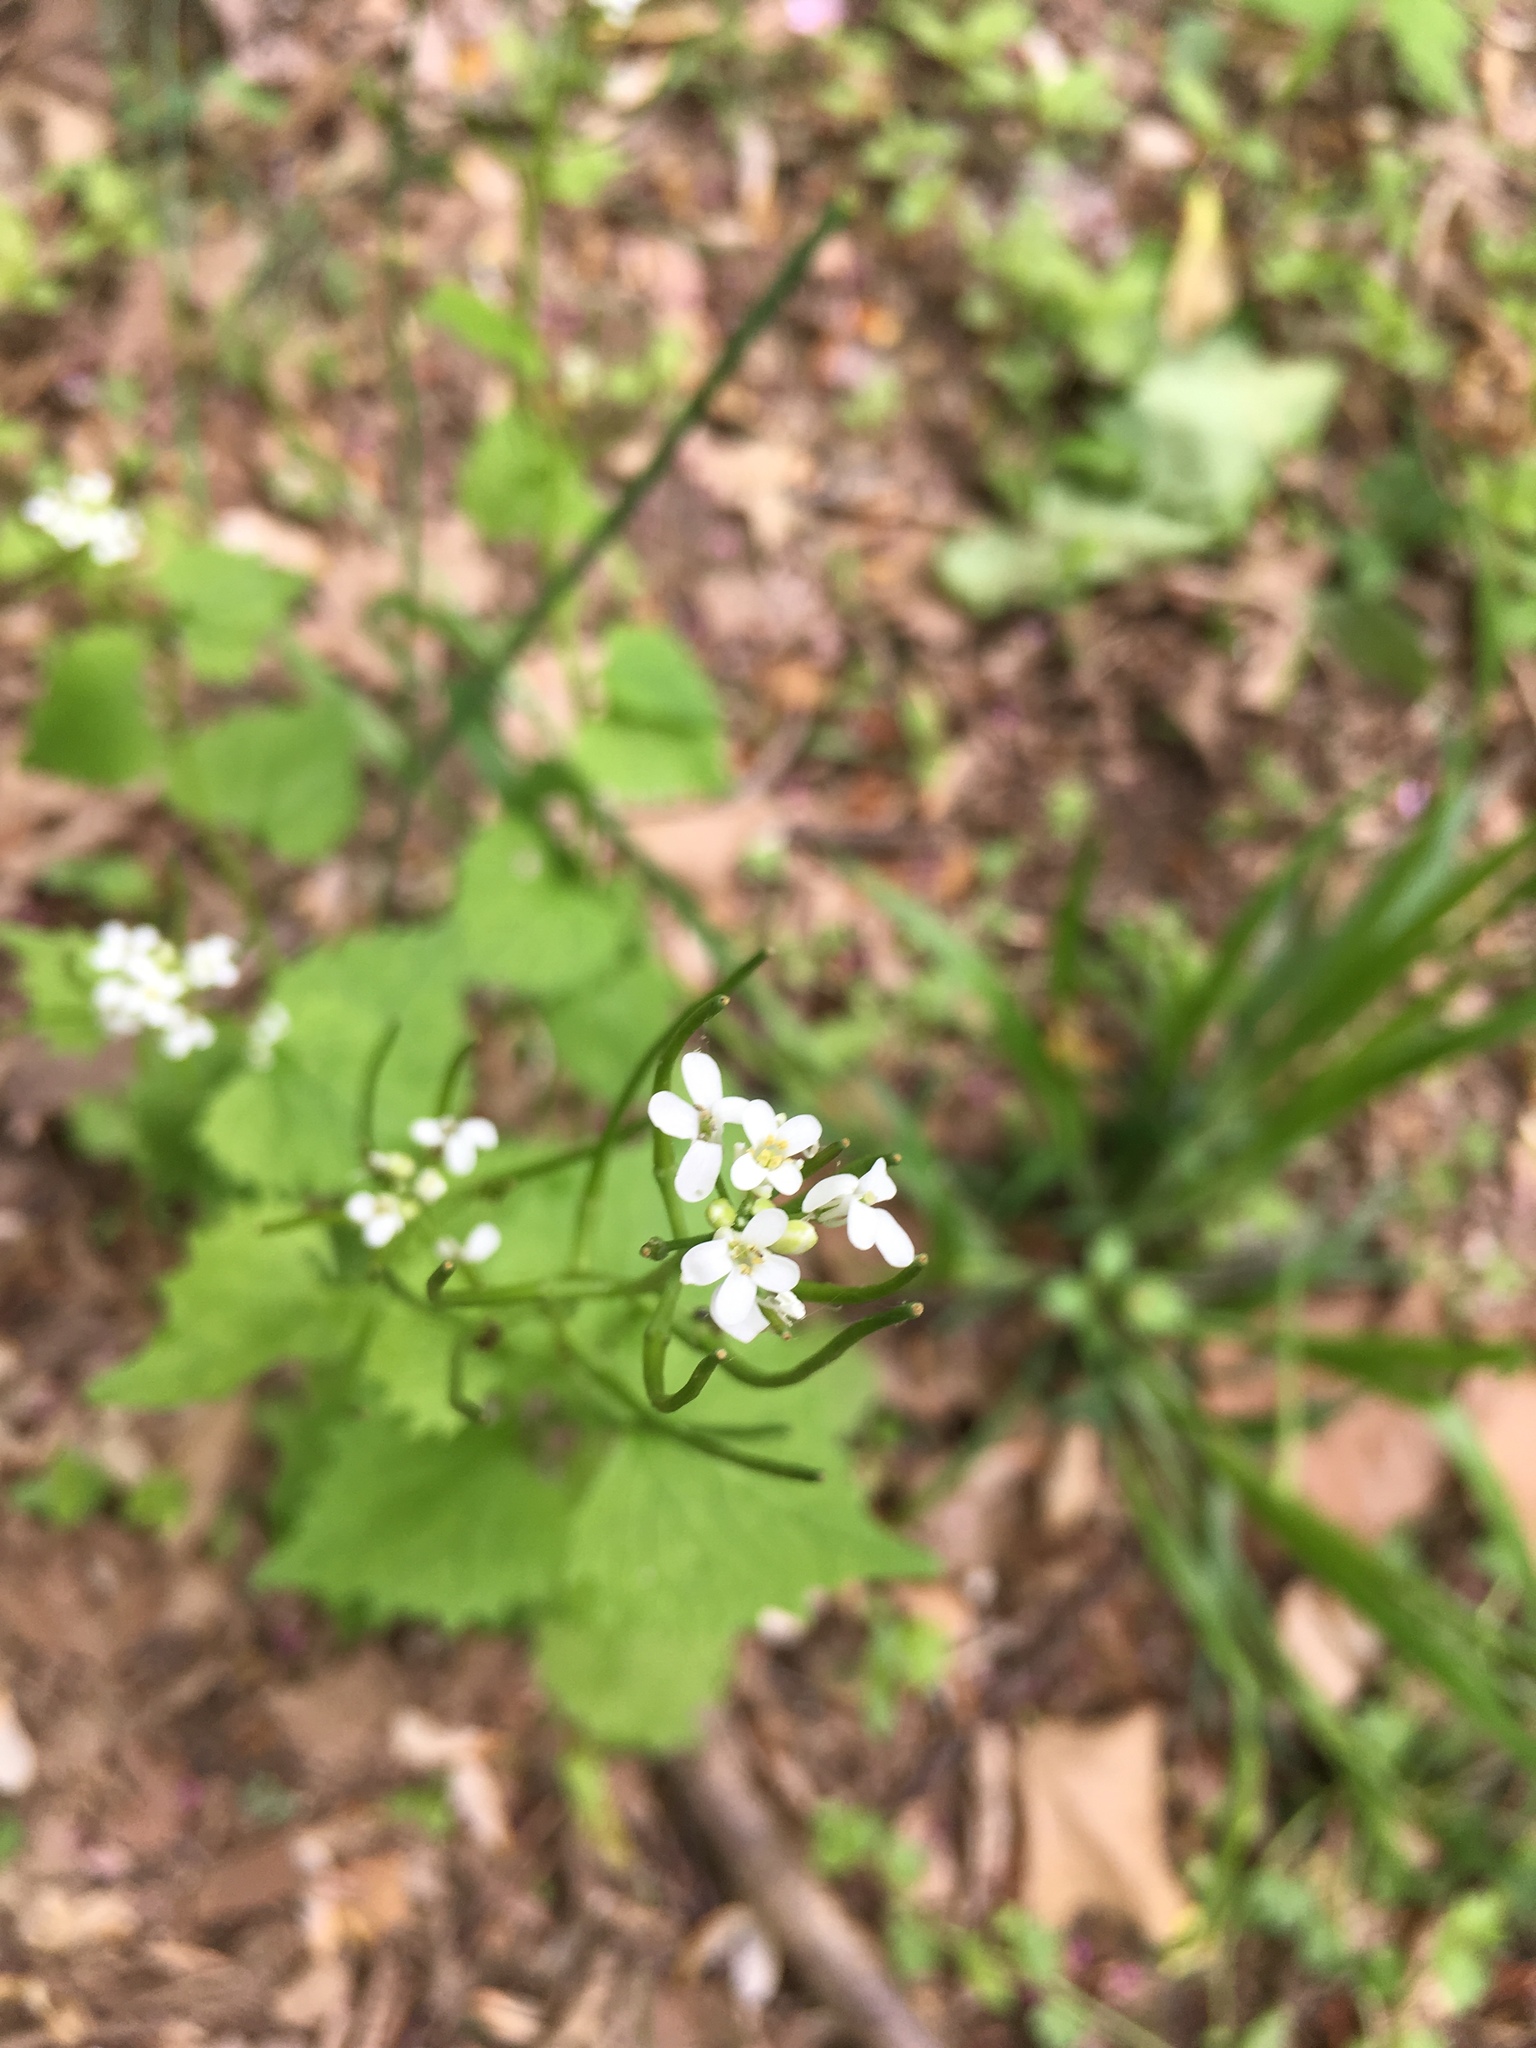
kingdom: Plantae
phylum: Tracheophyta
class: Magnoliopsida
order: Brassicales
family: Brassicaceae
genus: Alliaria
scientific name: Alliaria petiolata
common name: Garlic mustard
